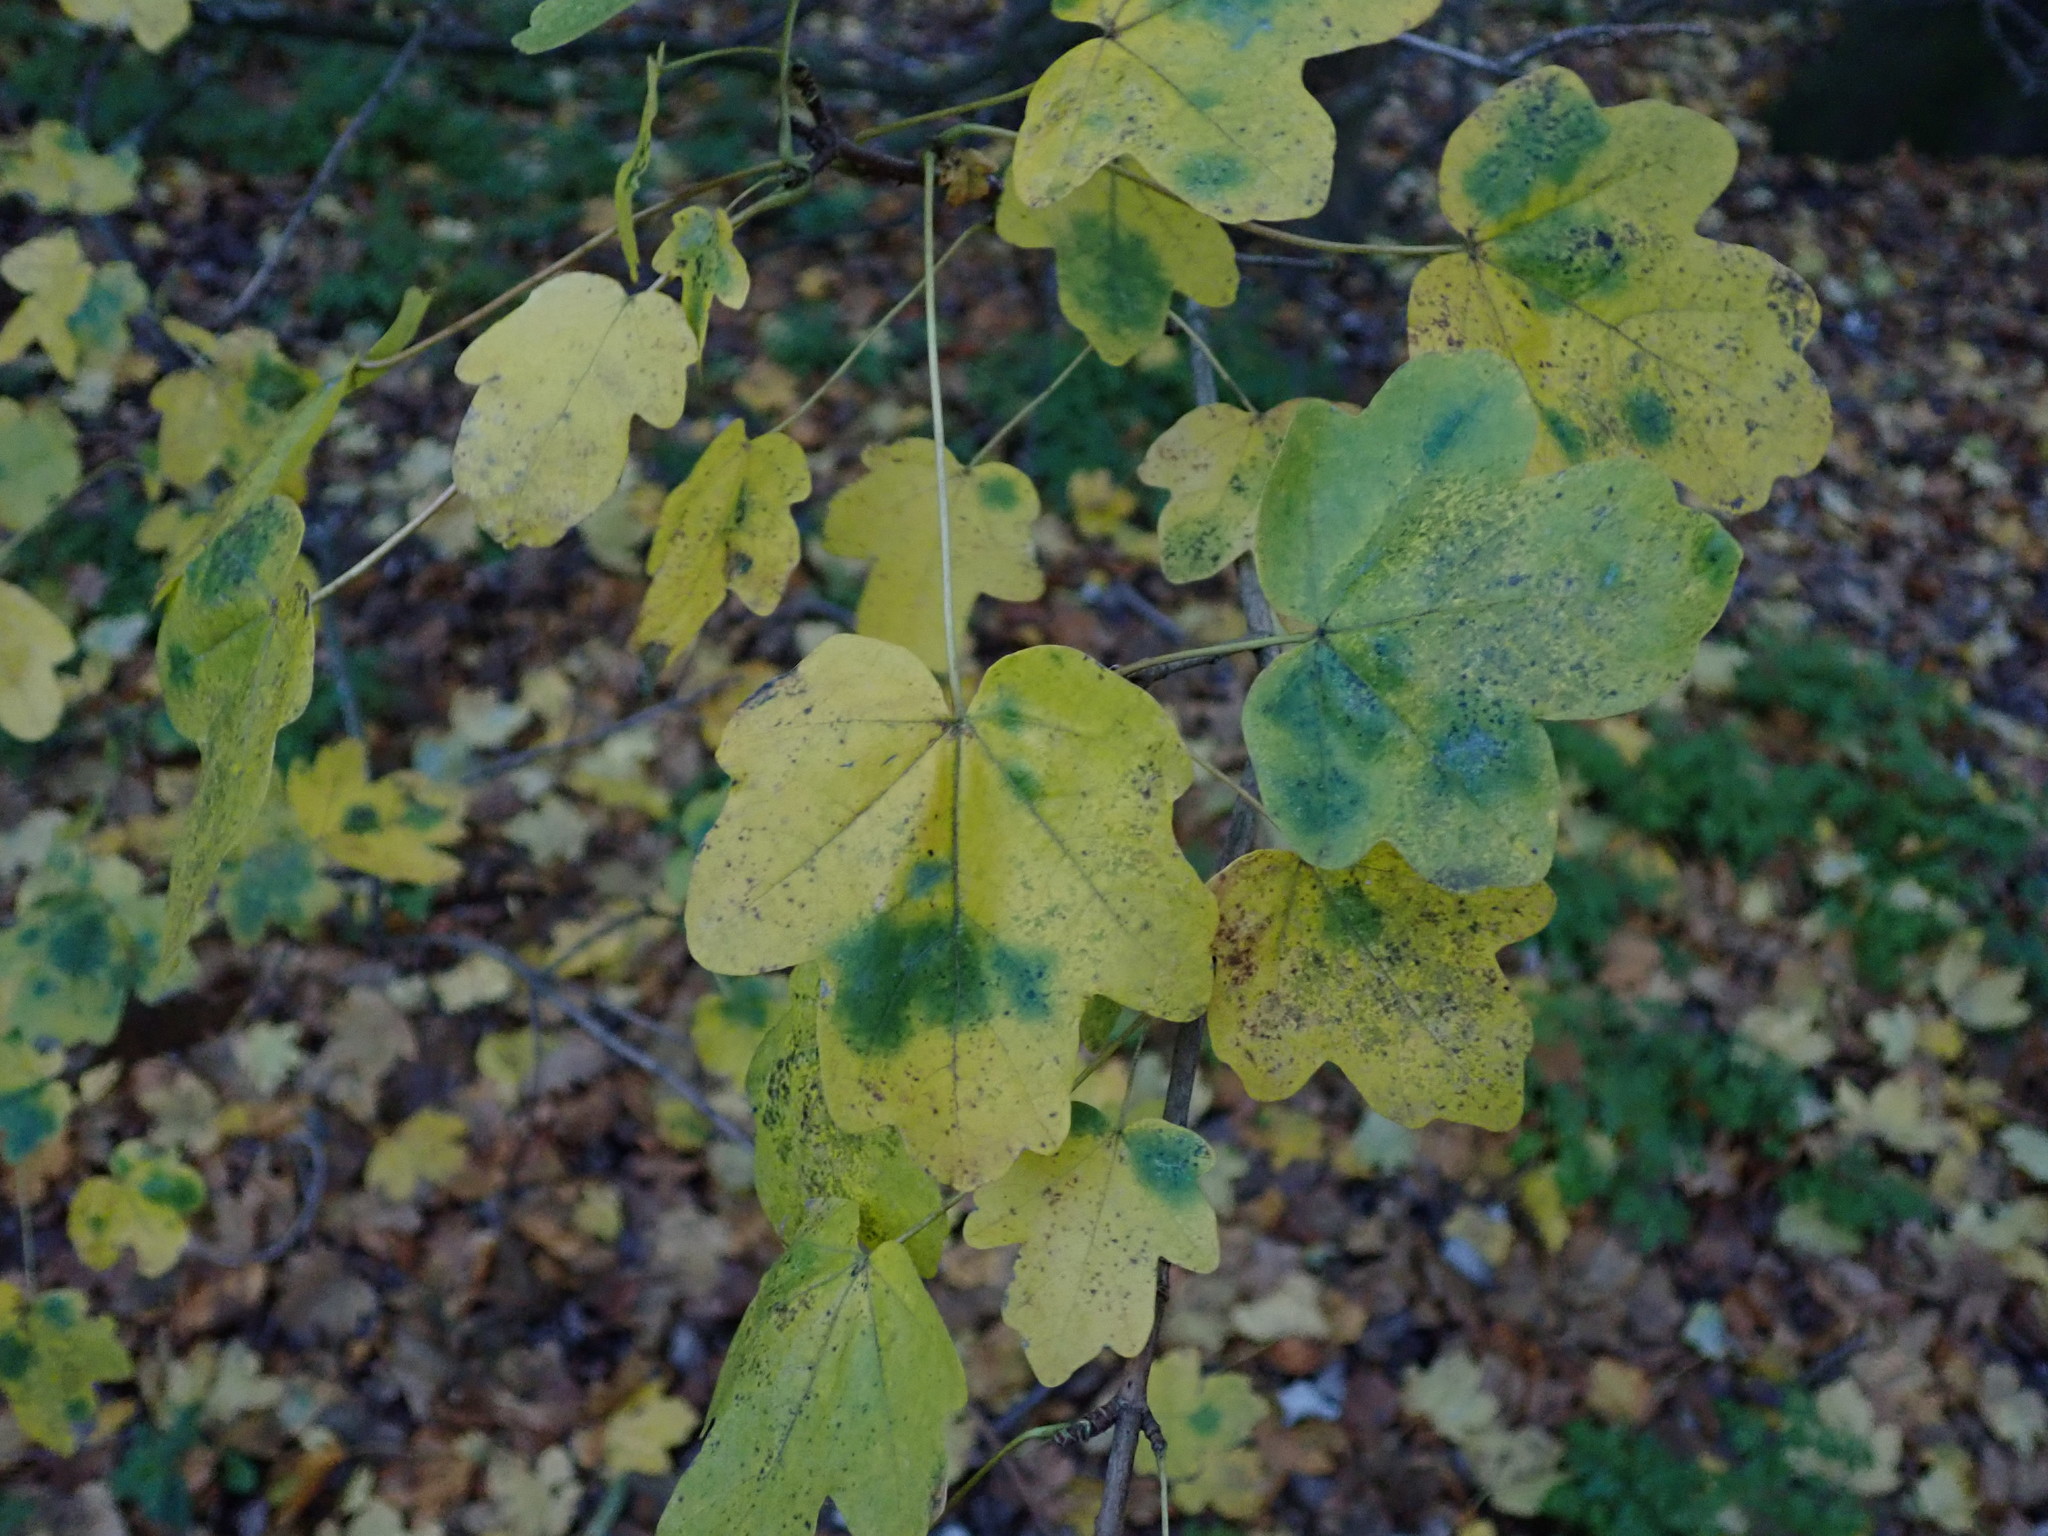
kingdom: Plantae
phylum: Tracheophyta
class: Magnoliopsida
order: Sapindales
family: Sapindaceae
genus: Acer
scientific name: Acer campestre
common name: Field maple
